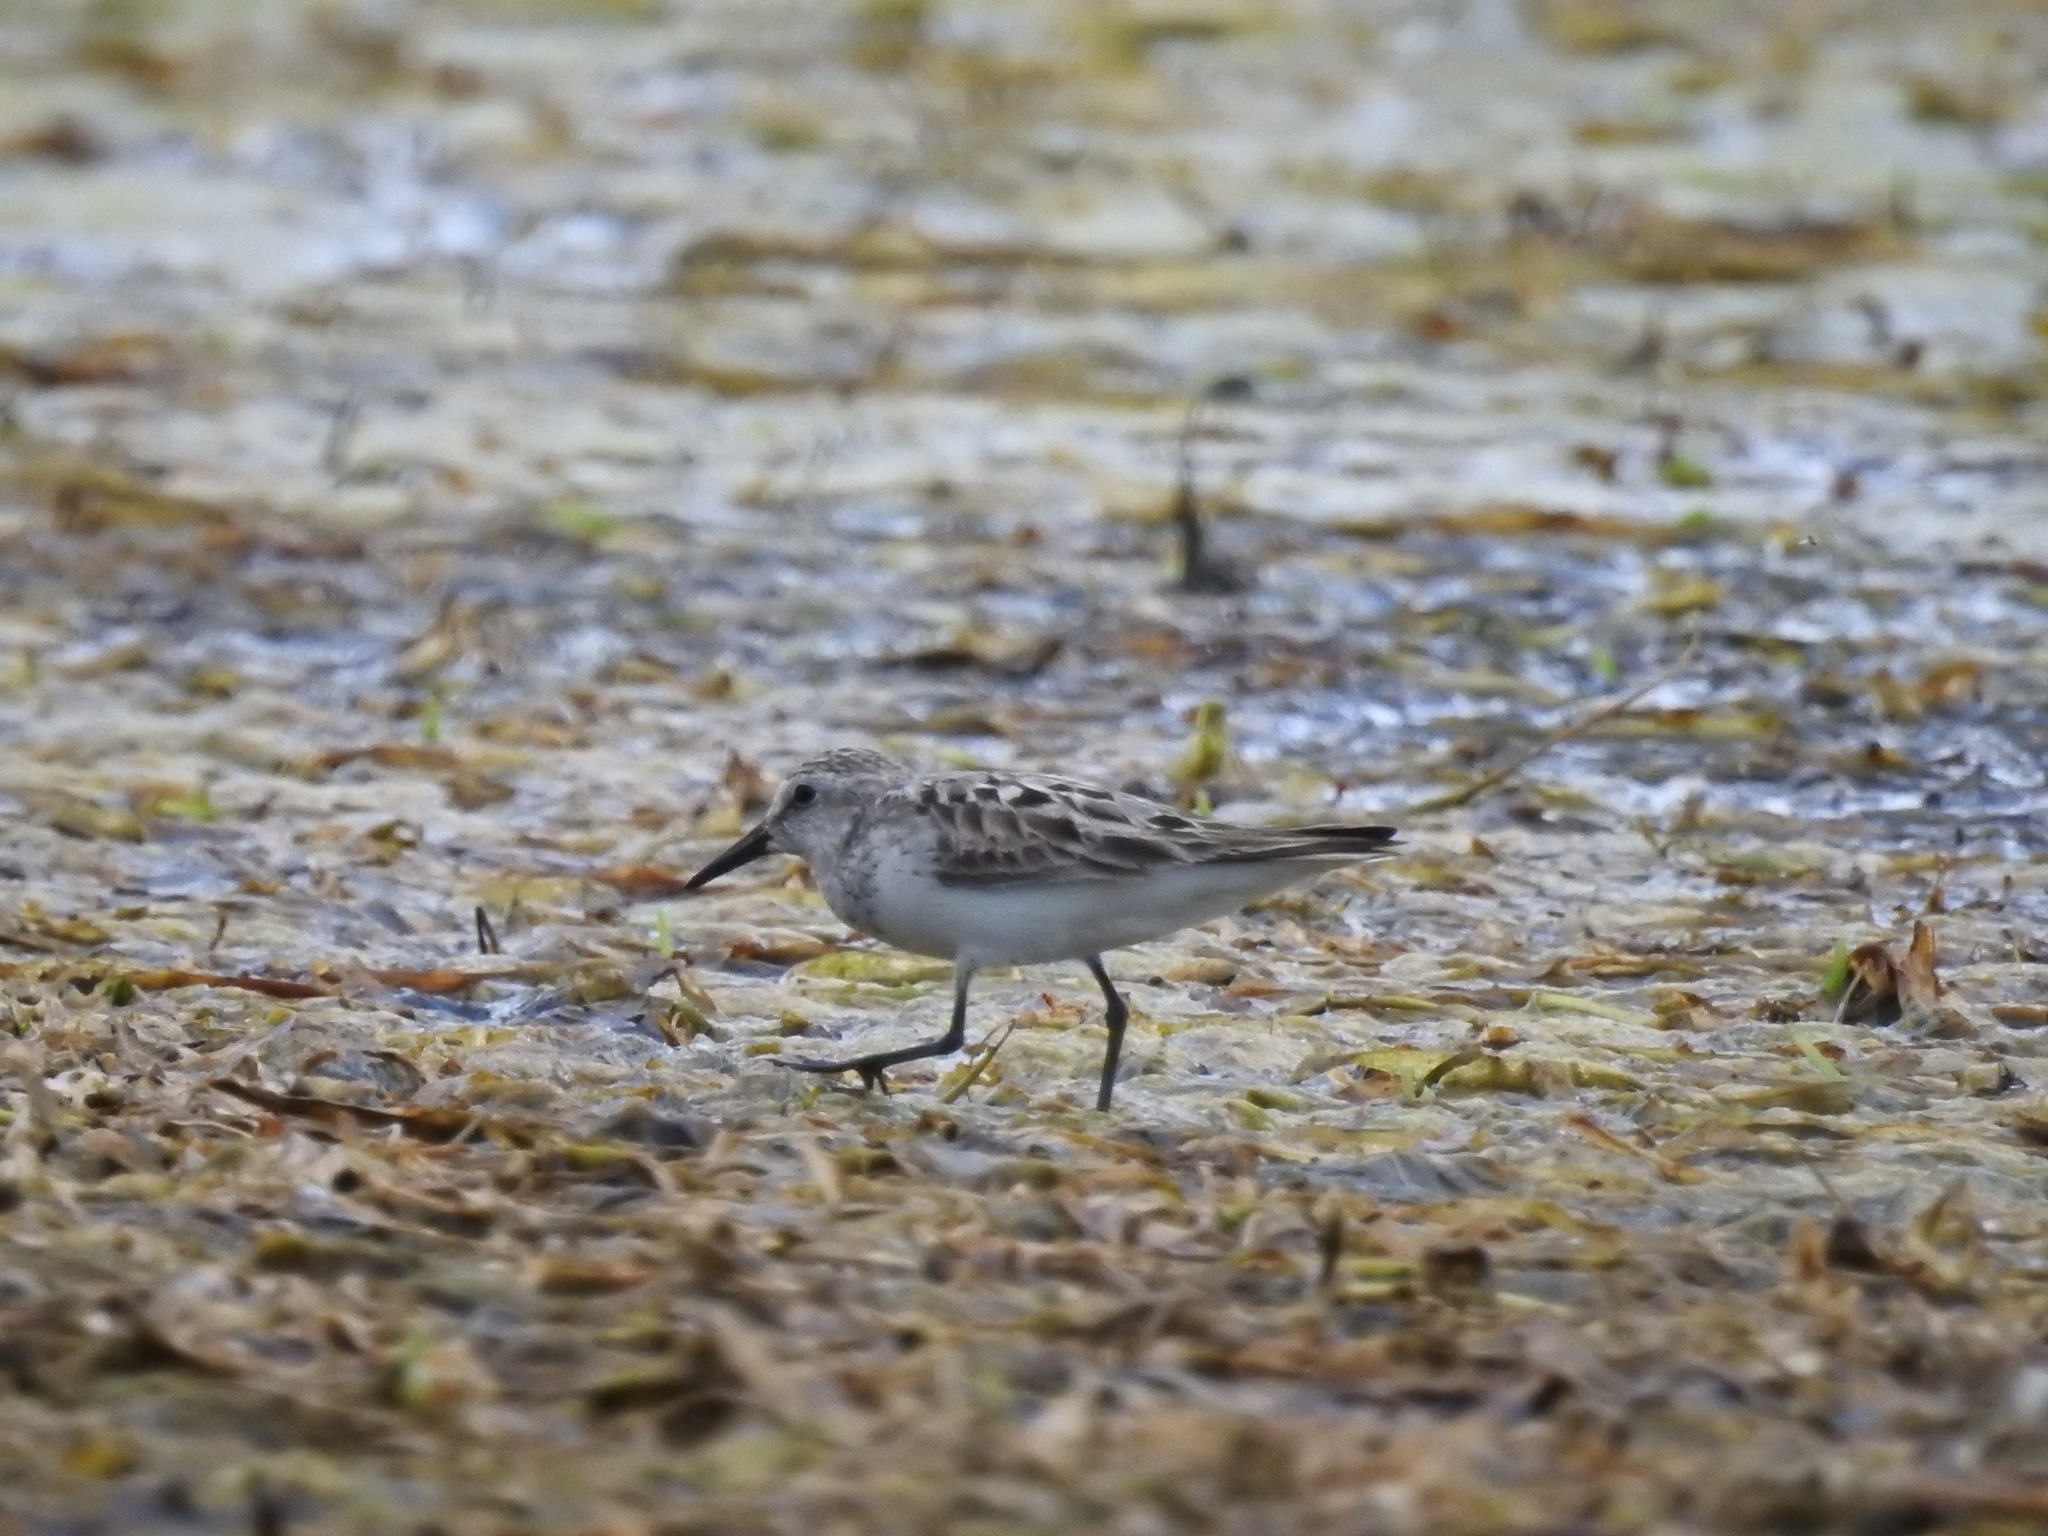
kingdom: Animalia
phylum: Chordata
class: Aves
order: Charadriiformes
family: Scolopacidae
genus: Calidris
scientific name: Calidris pusilla
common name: Semipalmated sandpiper
